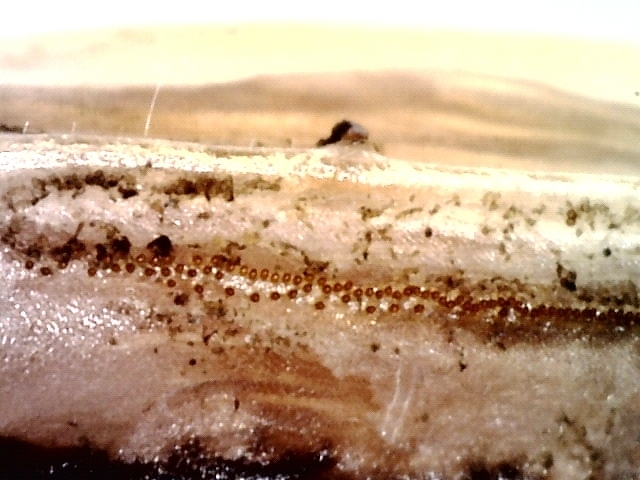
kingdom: Animalia
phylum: Arthropoda
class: Insecta
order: Orthoptera
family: Acrididae
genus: Chorthippus
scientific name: Chorthippus karelini
